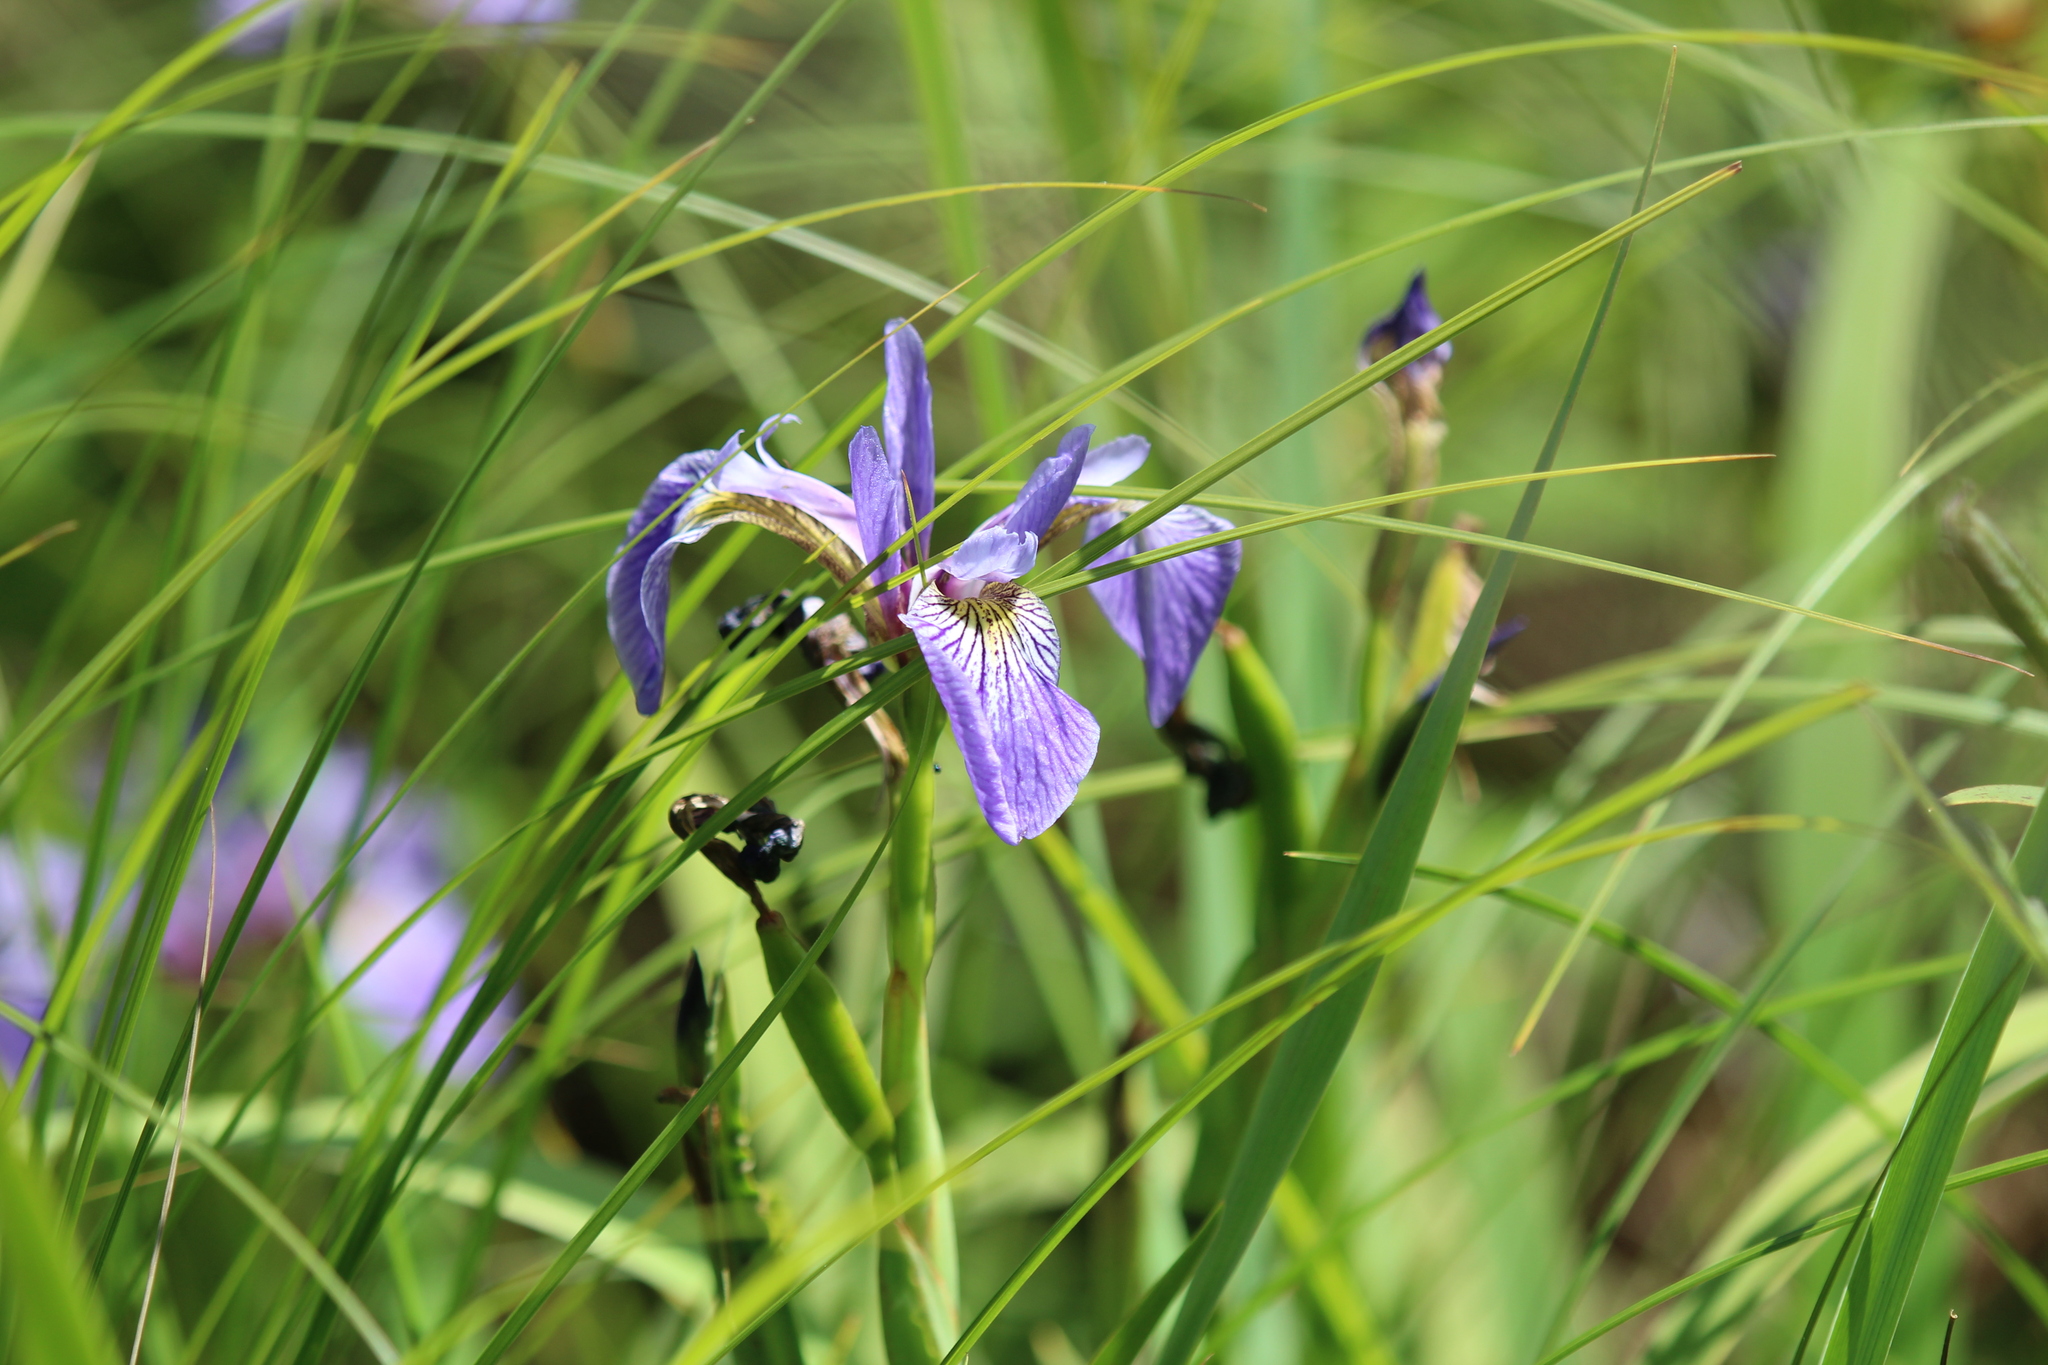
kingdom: Plantae
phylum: Tracheophyta
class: Liliopsida
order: Asparagales
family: Iridaceae
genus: Iris
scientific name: Iris versicolor
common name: Purple iris
